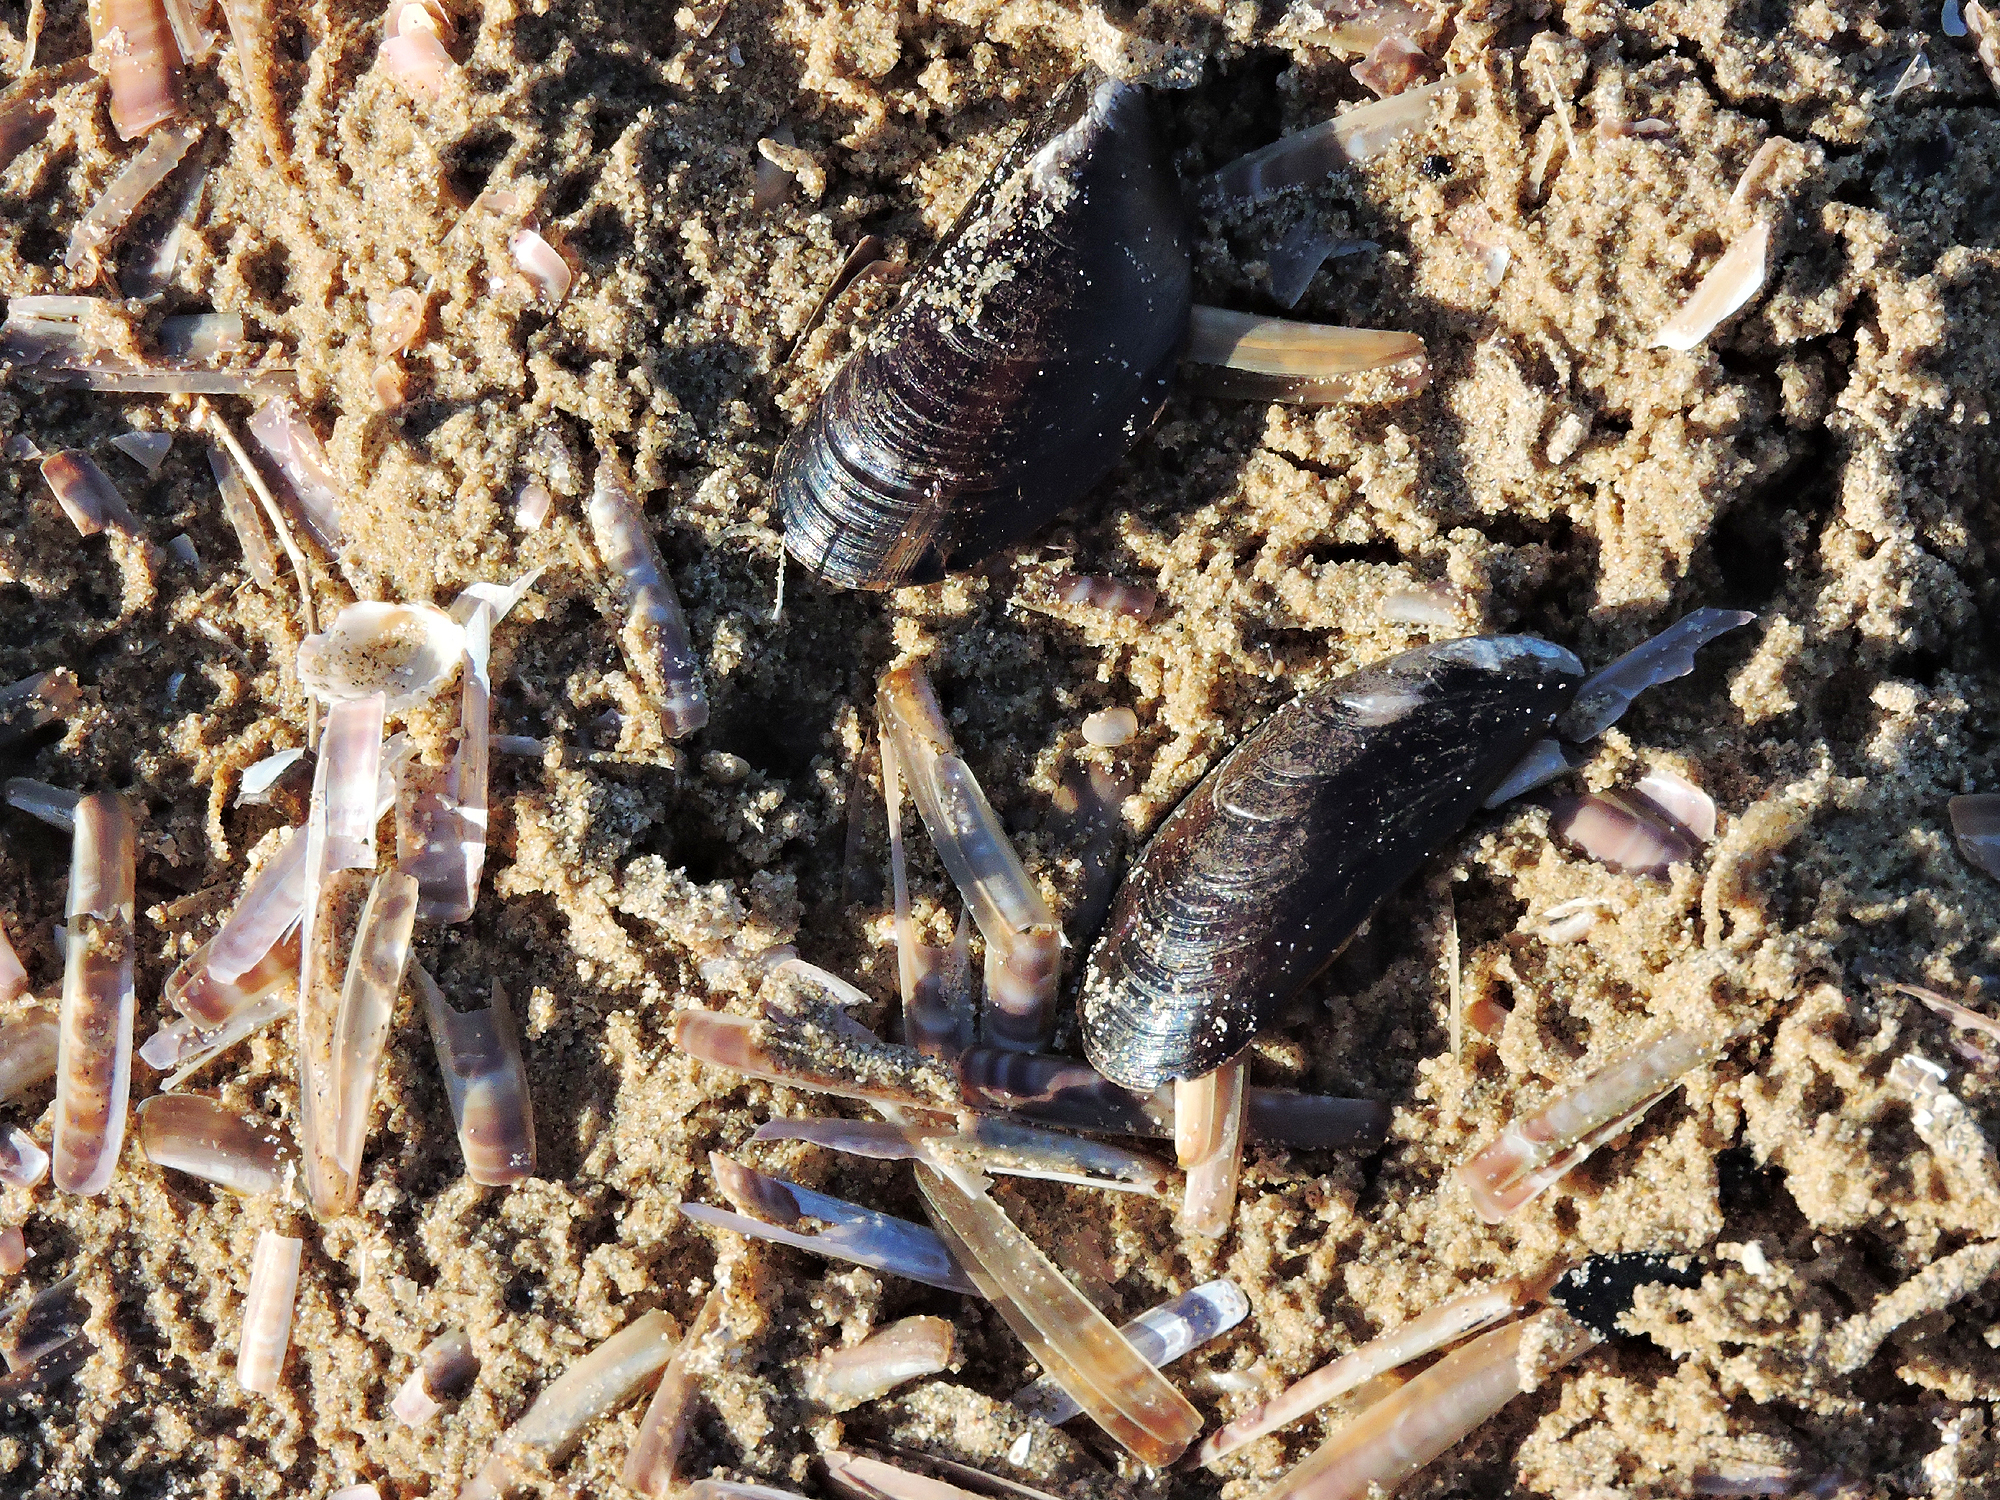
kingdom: Animalia
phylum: Mollusca
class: Bivalvia
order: Mytilida
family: Mytilidae
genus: Mytilus
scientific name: Mytilus edulis
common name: Blue mussel
